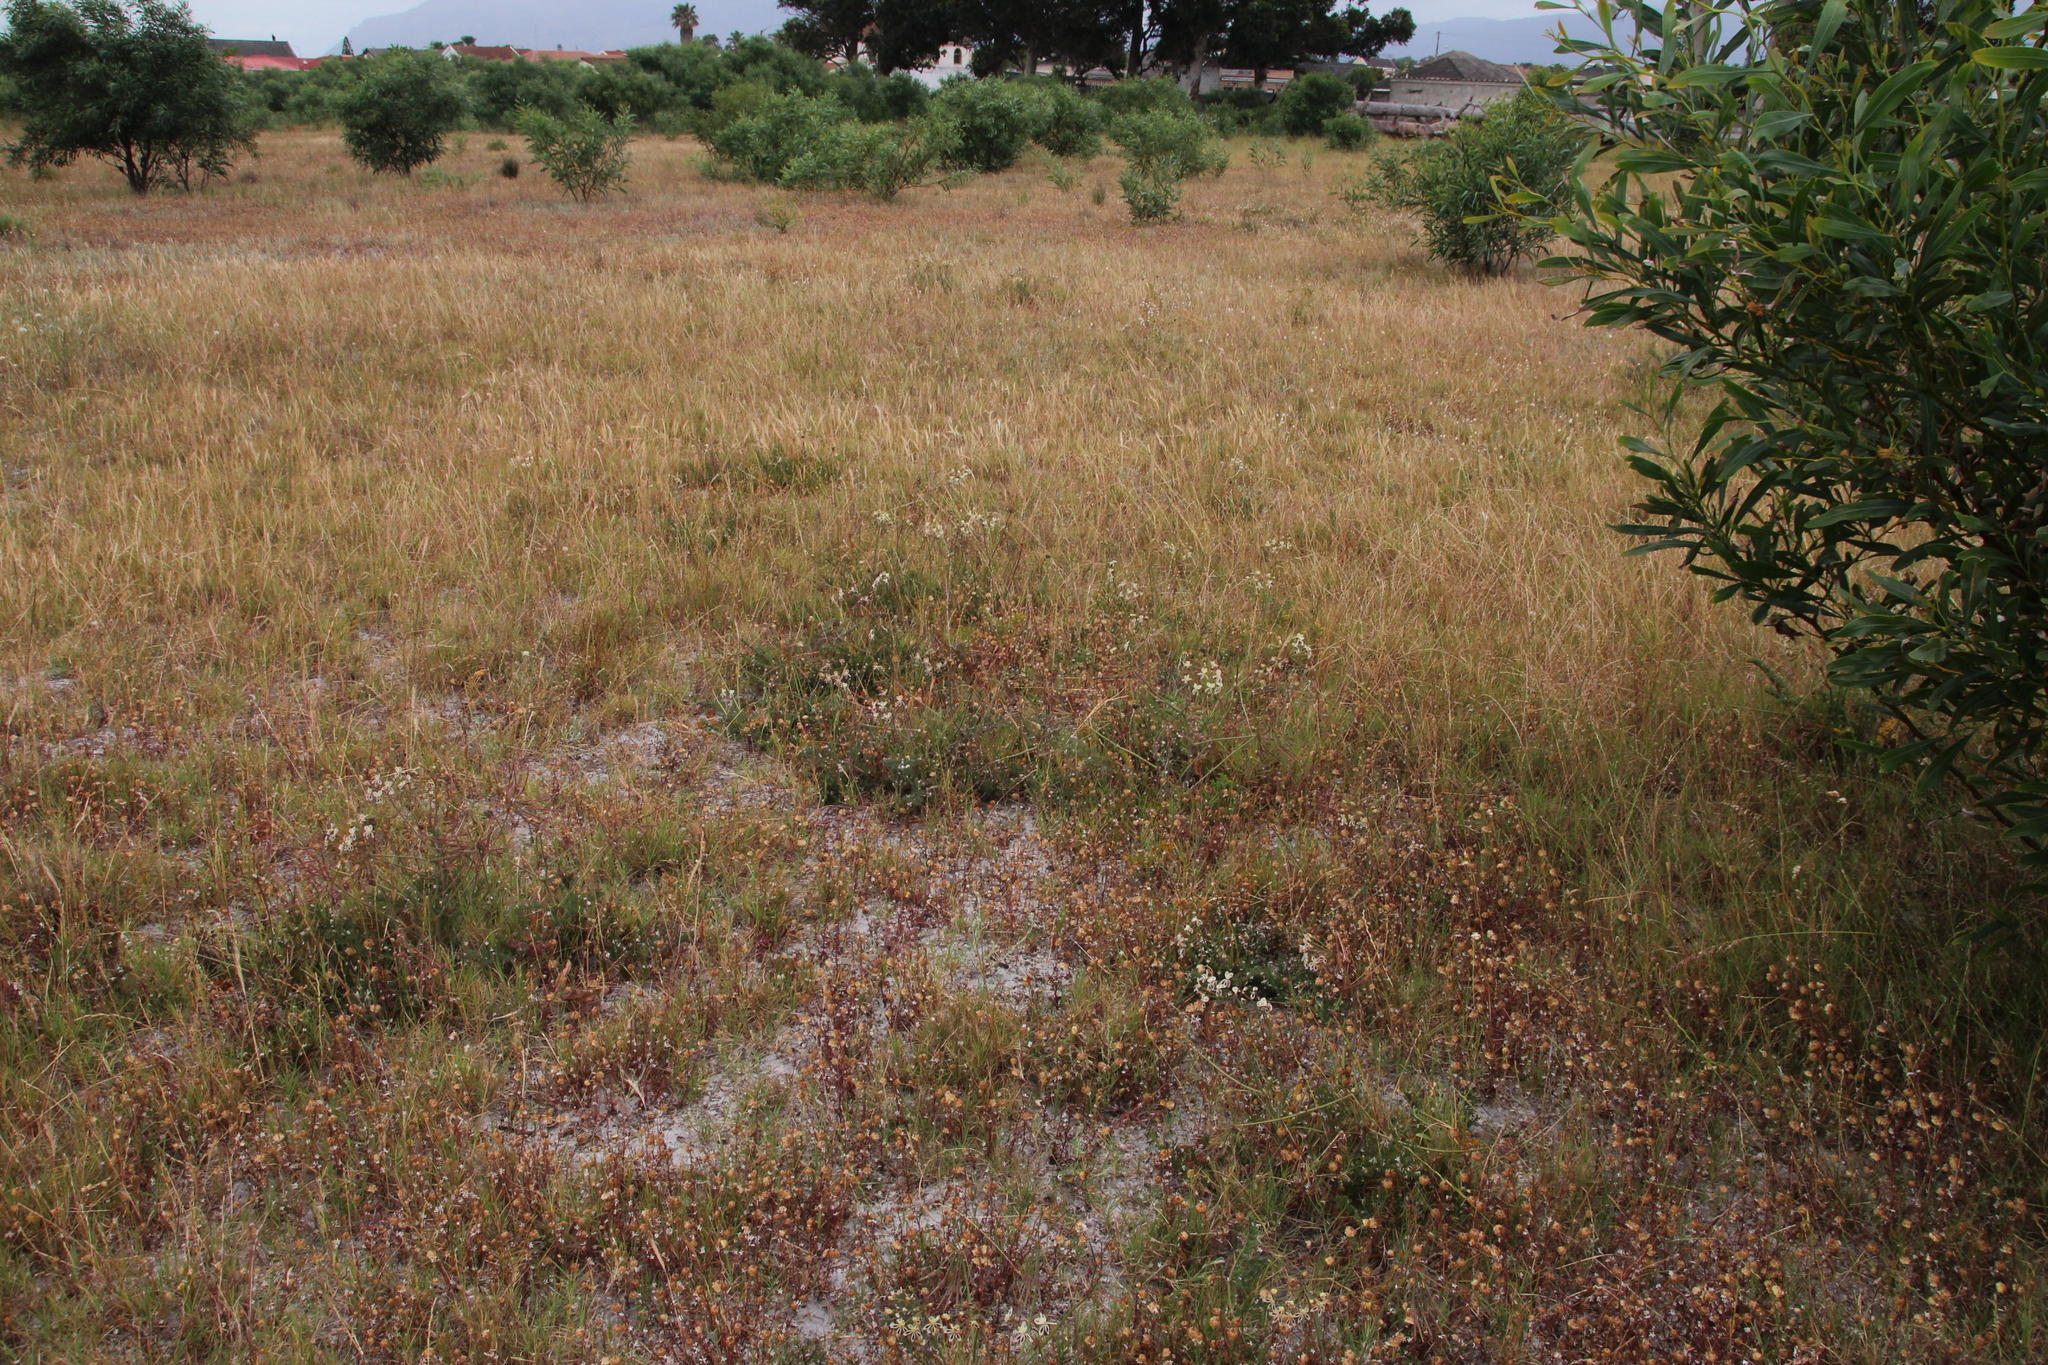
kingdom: Plantae
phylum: Tracheophyta
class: Magnoliopsida
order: Geraniales
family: Geraniaceae
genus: Pelargonium
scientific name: Pelargonium triste
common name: Night-scent pelargonium
